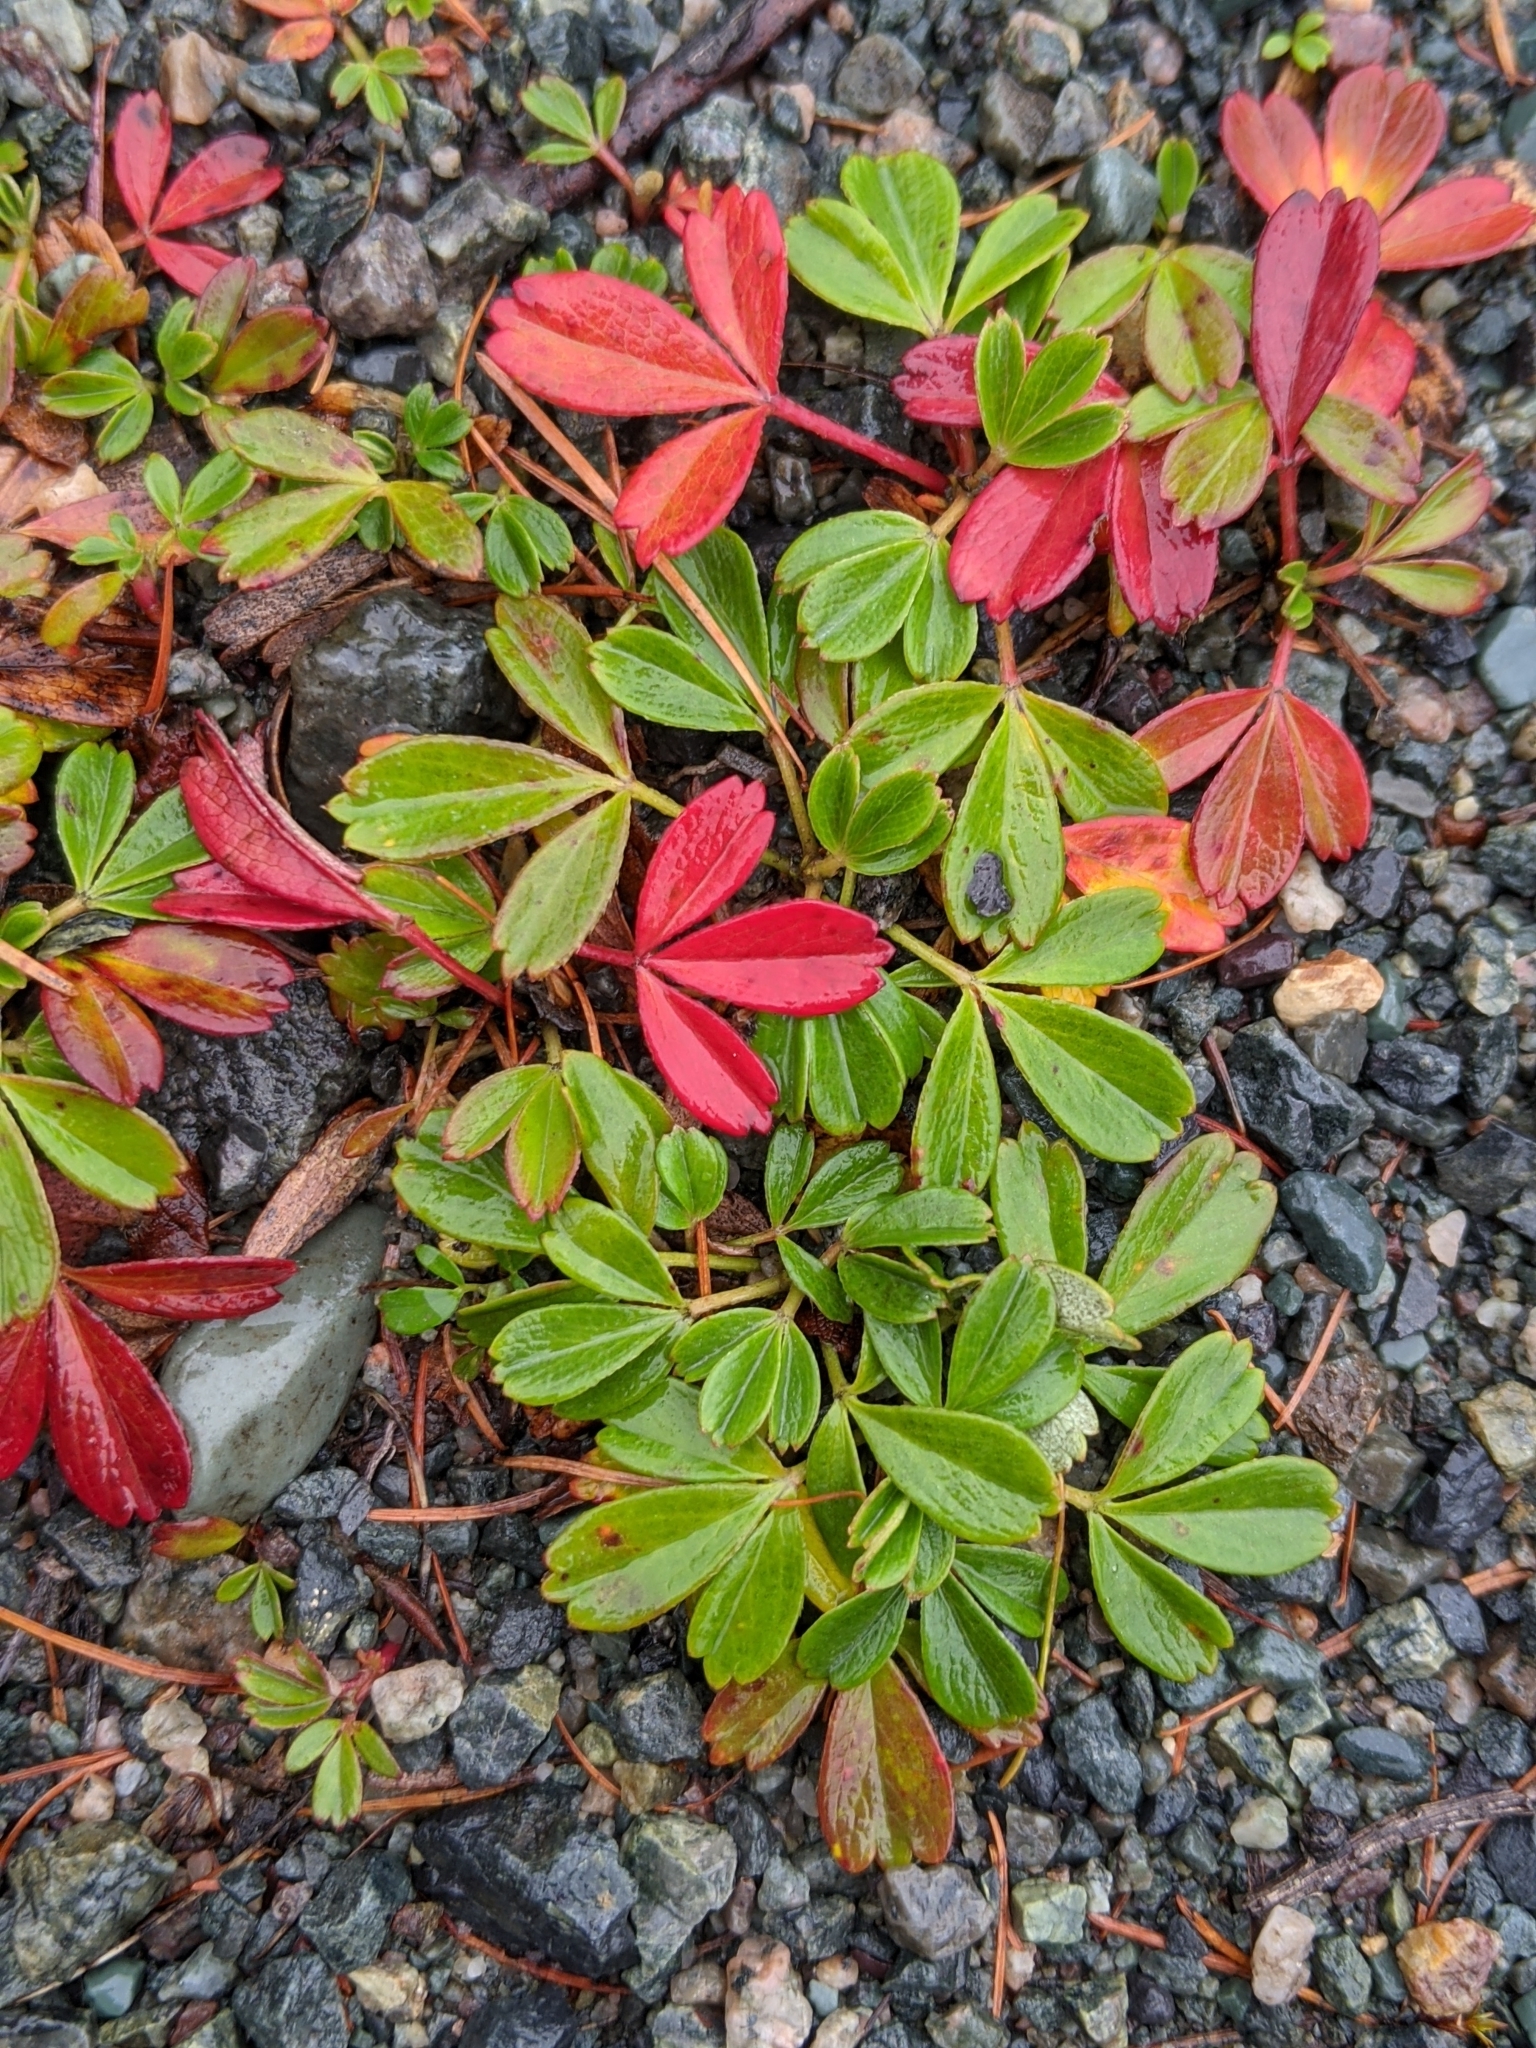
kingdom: Plantae
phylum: Tracheophyta
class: Magnoliopsida
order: Rosales
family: Rosaceae
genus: Sibbaldia
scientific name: Sibbaldia tridentata
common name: Three-toothed cinquefoil
